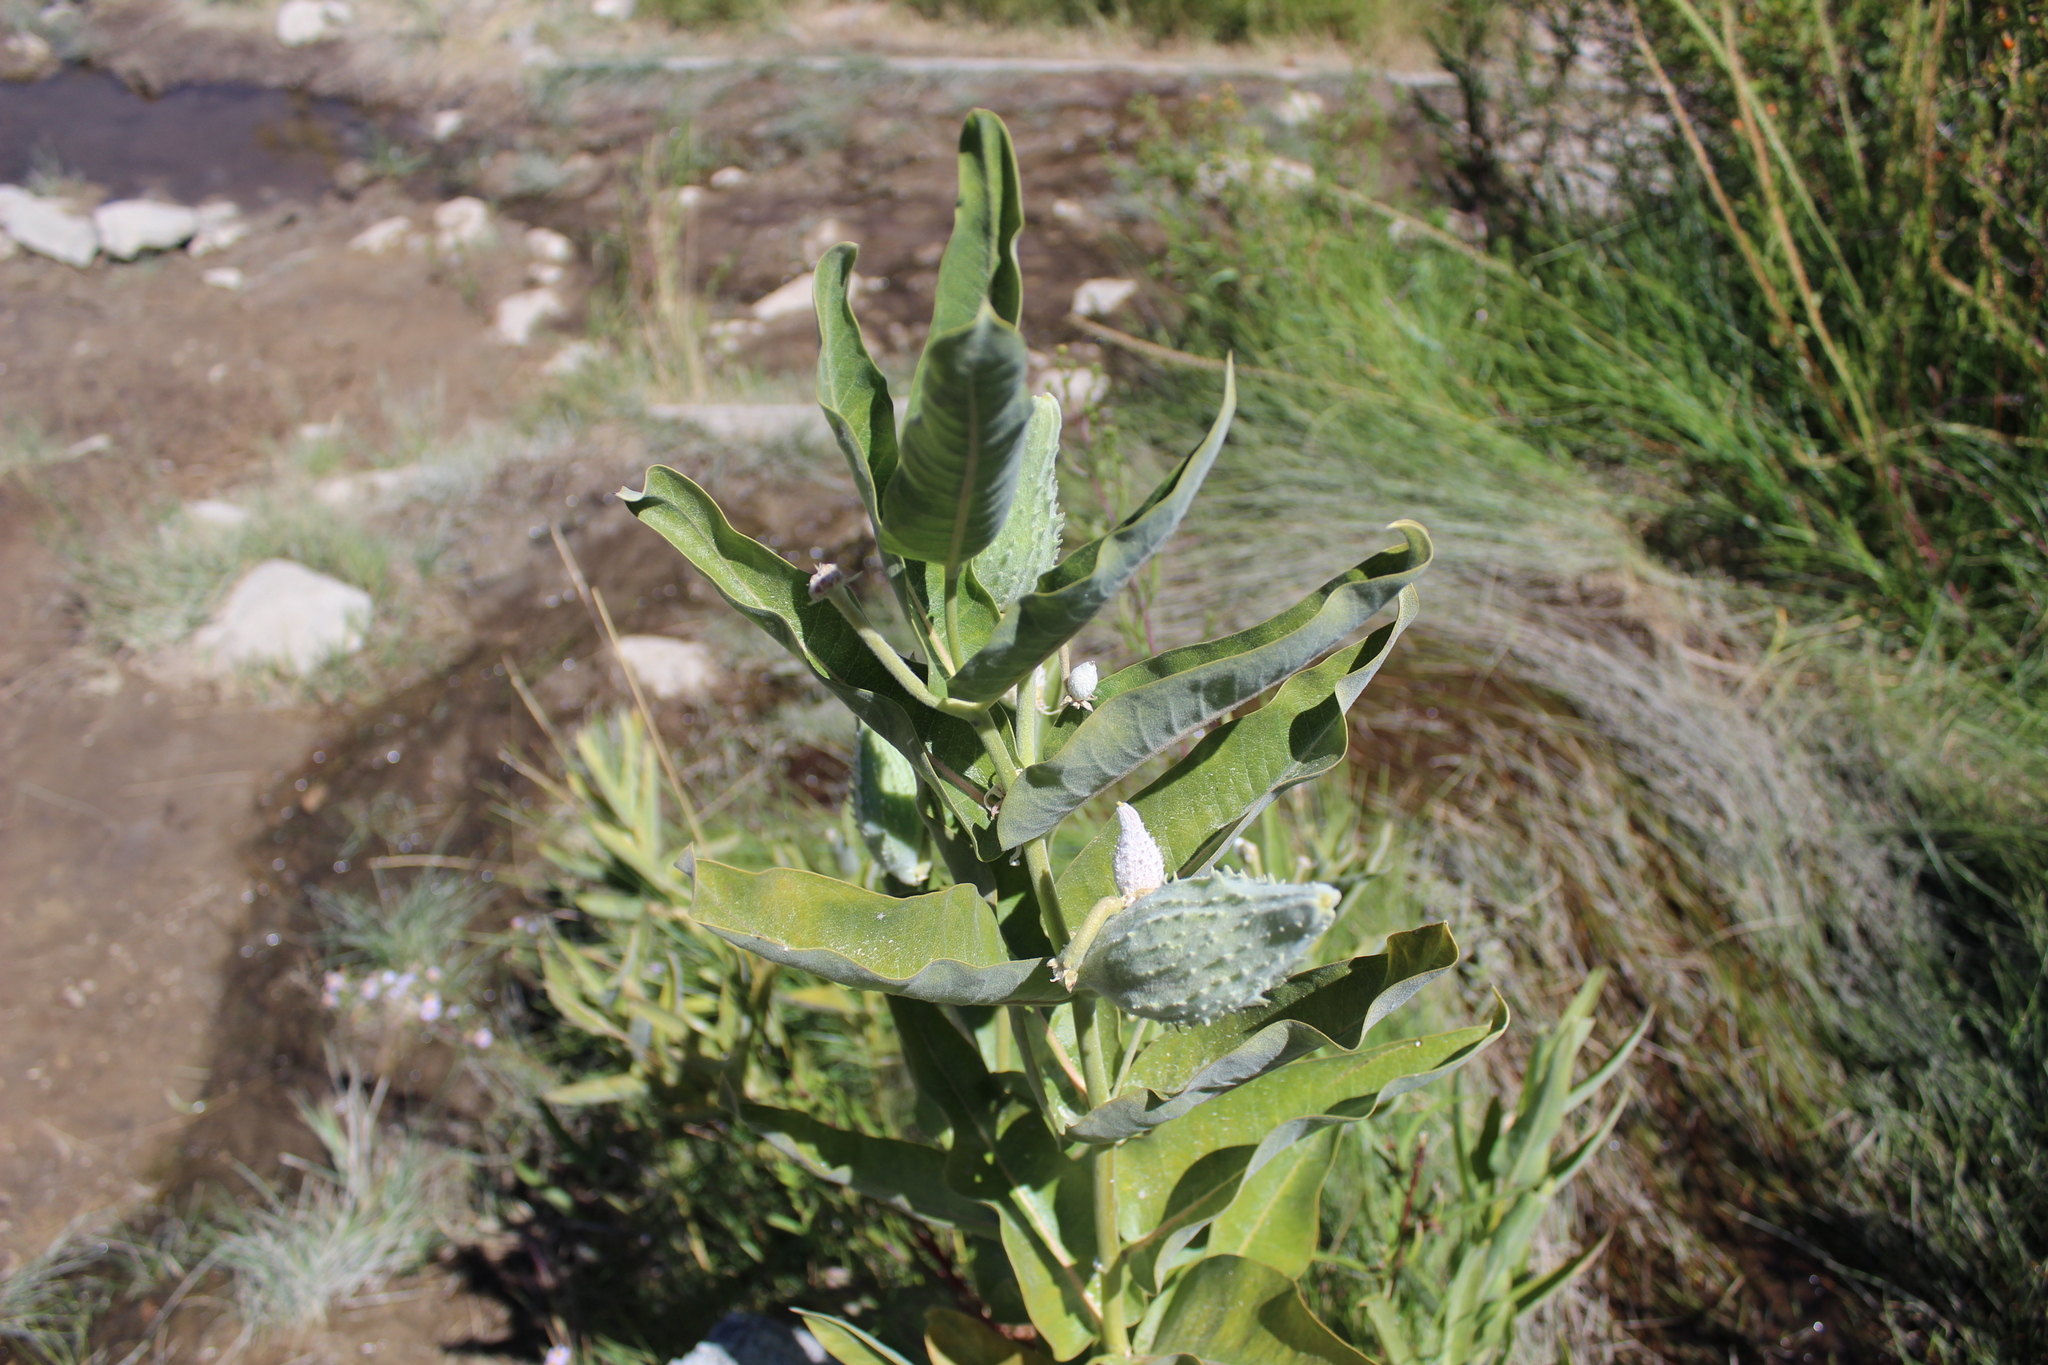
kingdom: Plantae
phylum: Tracheophyta
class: Magnoliopsida
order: Gentianales
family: Apocynaceae
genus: Asclepias
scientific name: Asclepias speciosa
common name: Showy milkweed
